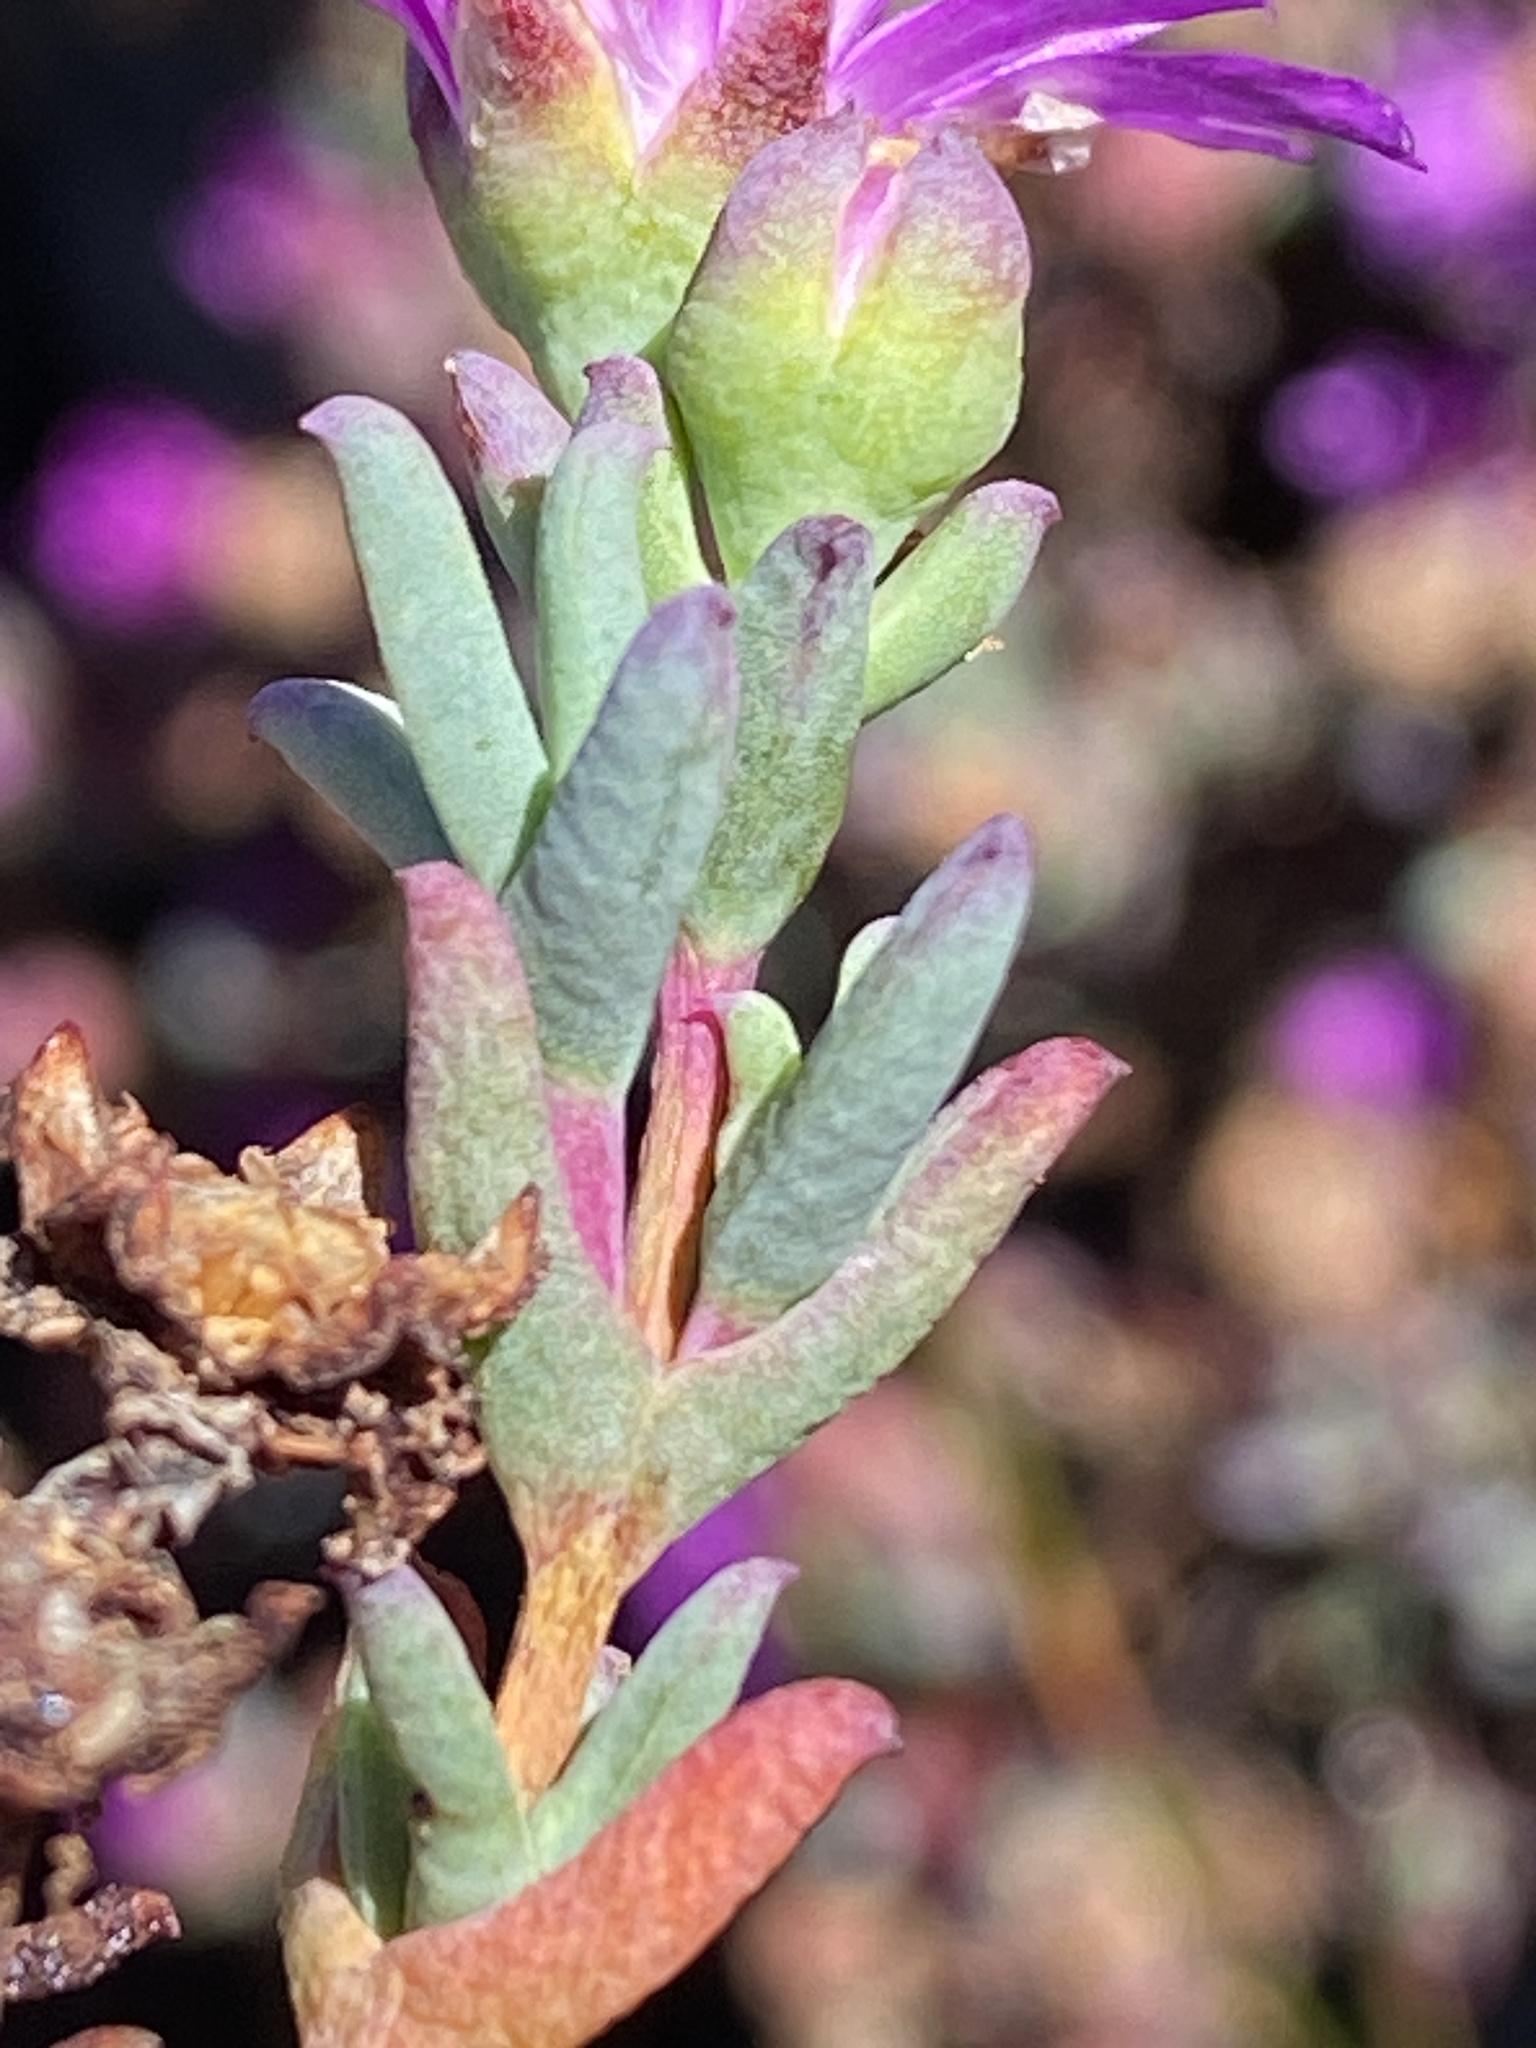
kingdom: Plantae
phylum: Tracheophyta
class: Magnoliopsida
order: Caryophyllales
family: Aizoaceae
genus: Erepsia
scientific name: Erepsia esterhuyseniae
